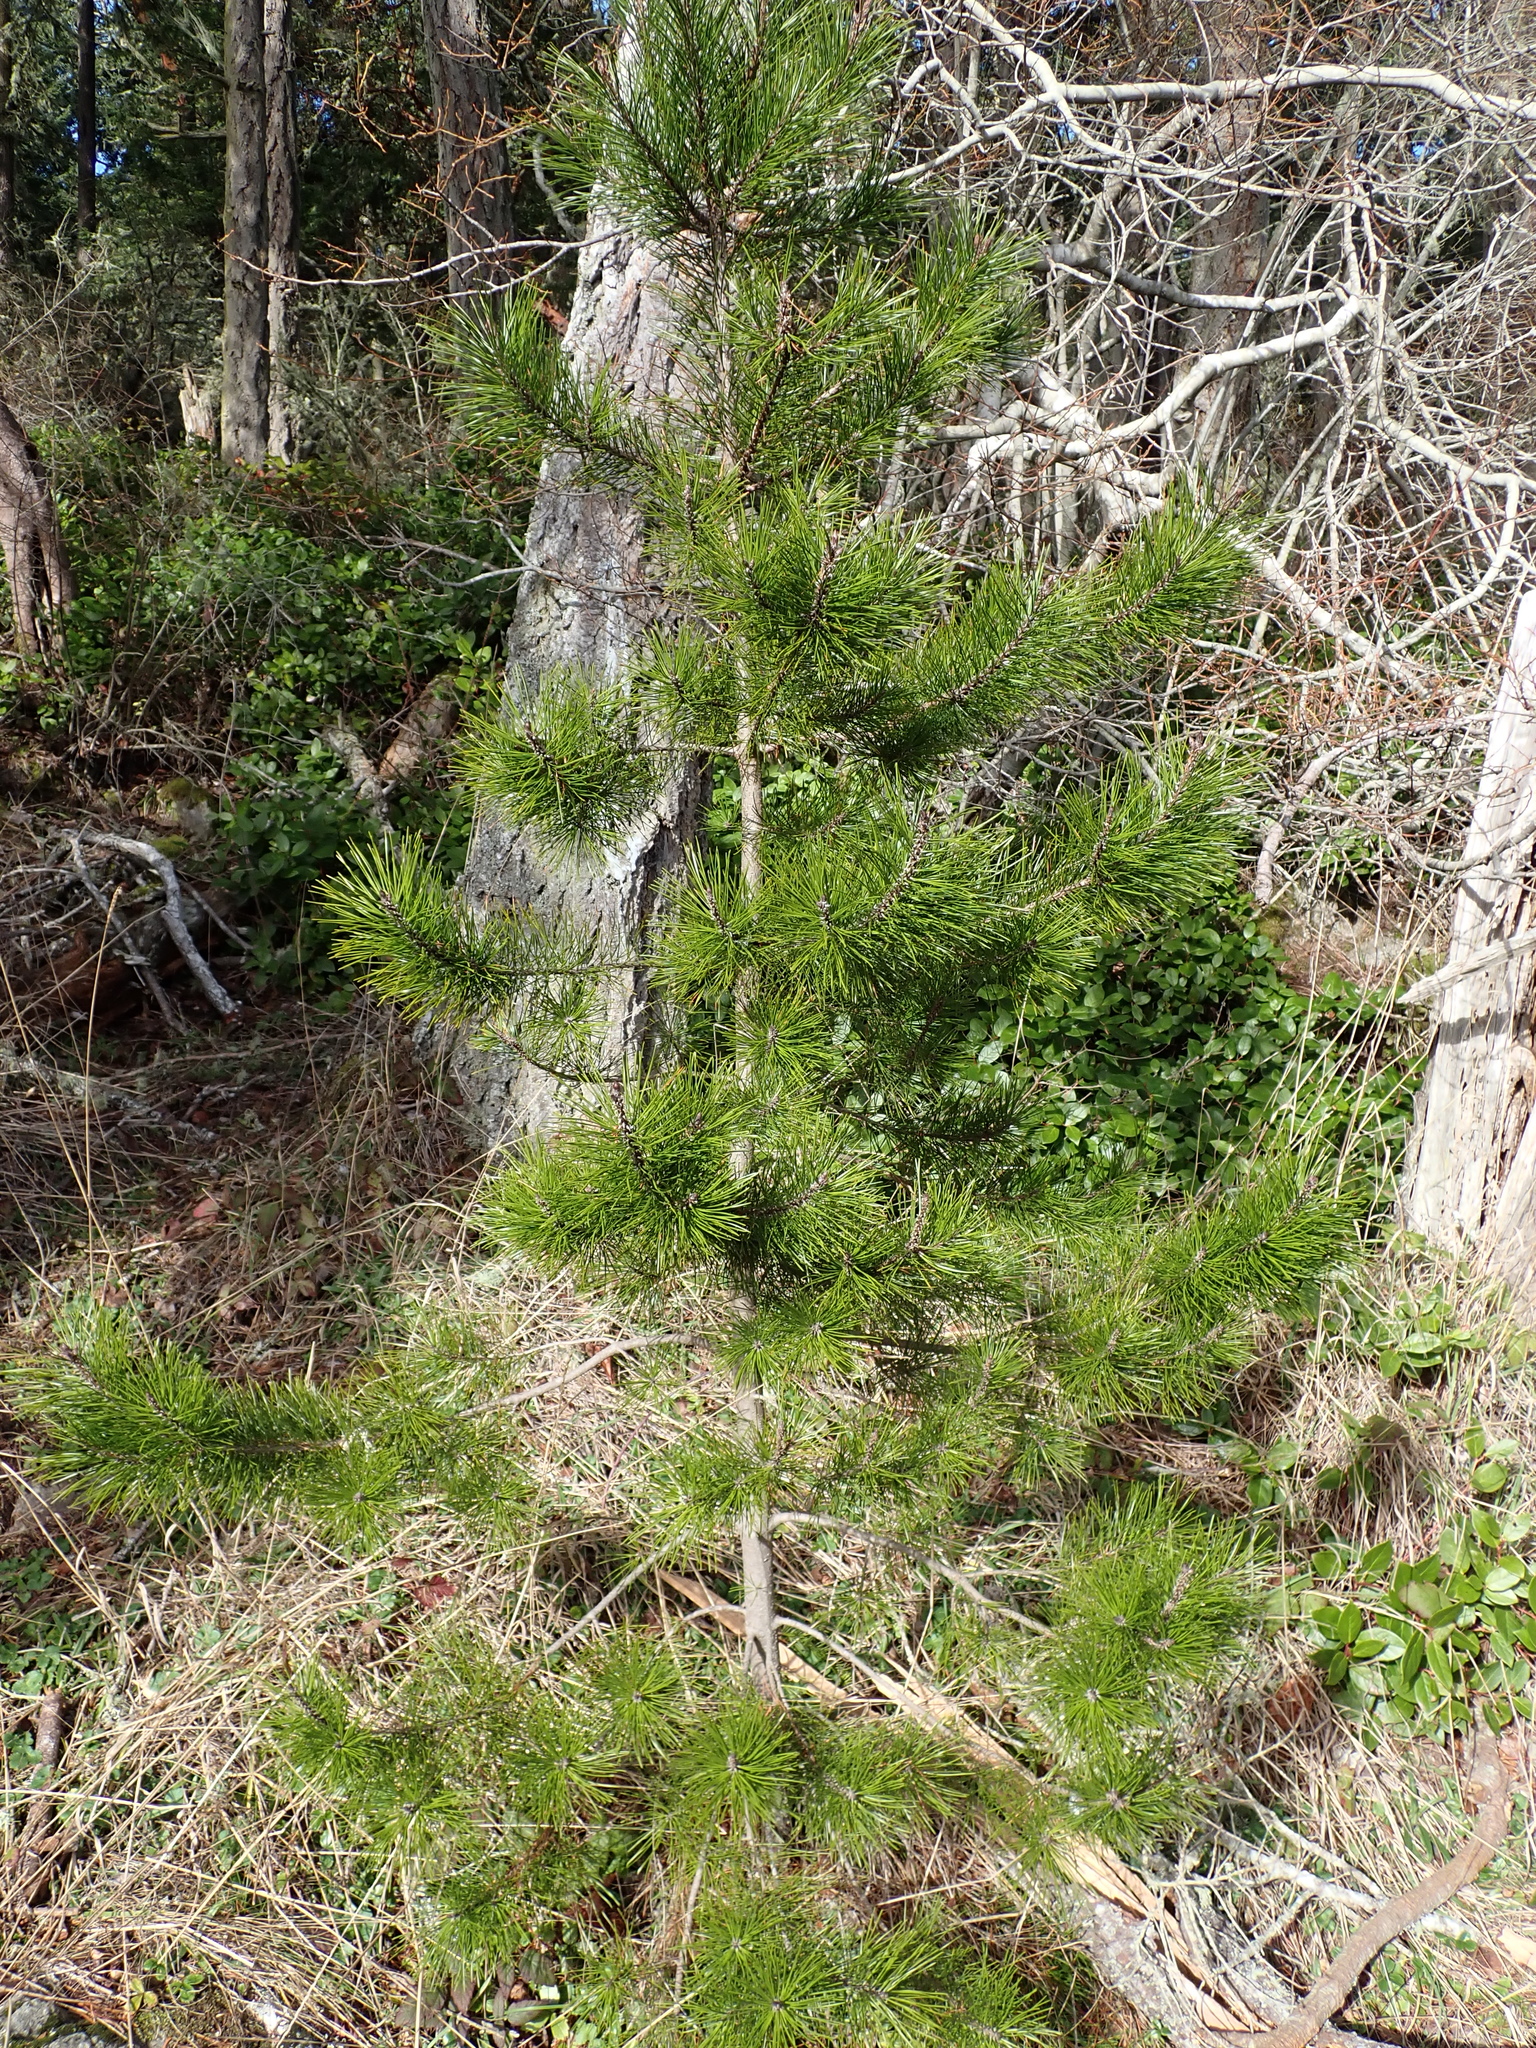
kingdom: Plantae
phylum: Tracheophyta
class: Pinopsida
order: Pinales
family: Pinaceae
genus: Pinus
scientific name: Pinus contorta
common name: Lodgepole pine
